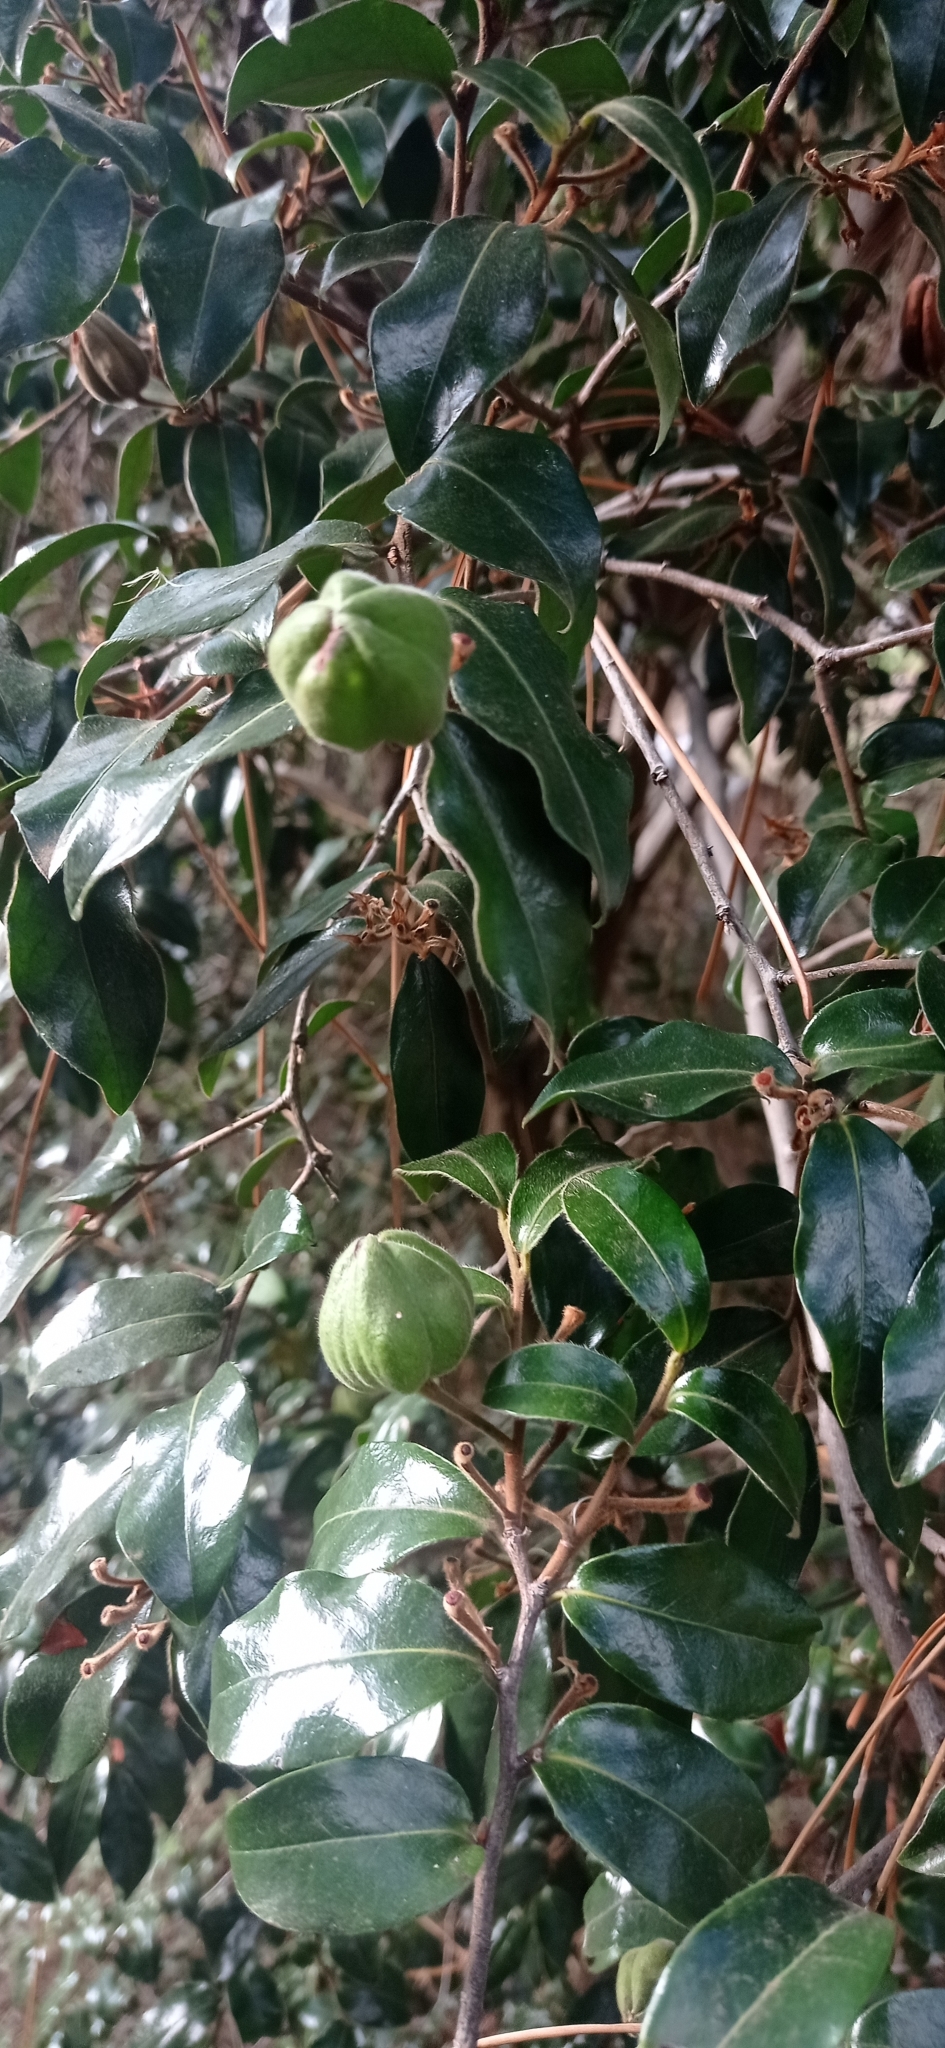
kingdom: Plantae
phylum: Tracheophyta
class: Magnoliopsida
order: Ericales
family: Ebenaceae
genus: Diospyros
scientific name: Diospyros whyteana
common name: Bladder-nut
